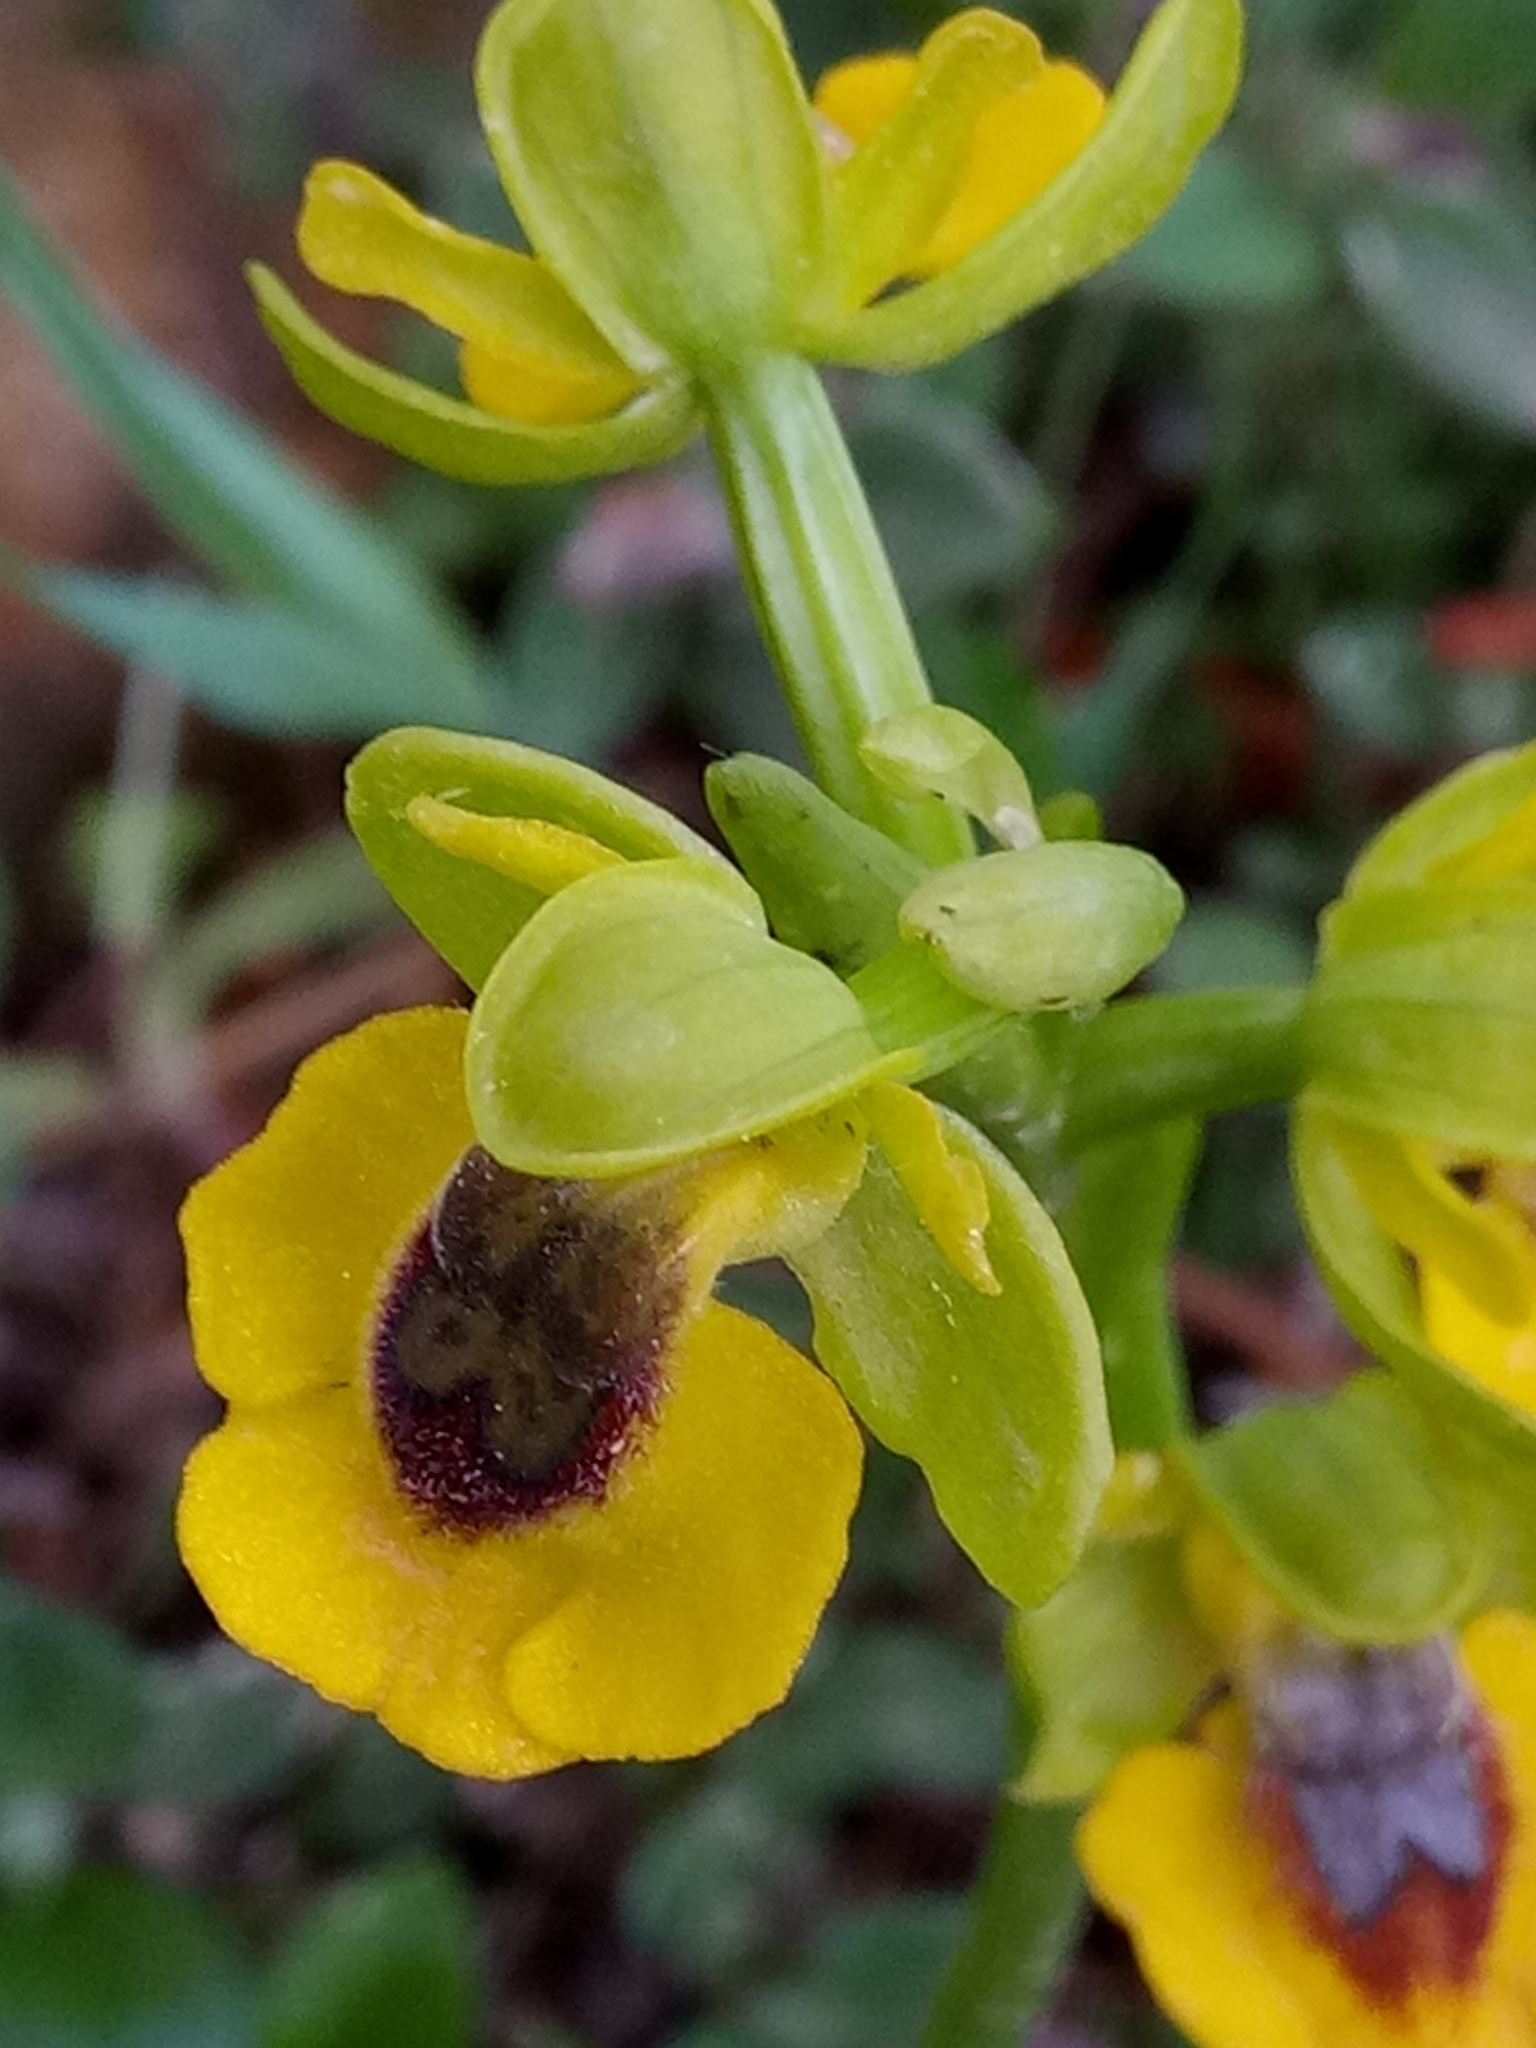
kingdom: Plantae
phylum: Tracheophyta
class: Liliopsida
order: Asparagales
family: Orchidaceae
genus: Ophrys
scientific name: Ophrys lutea
